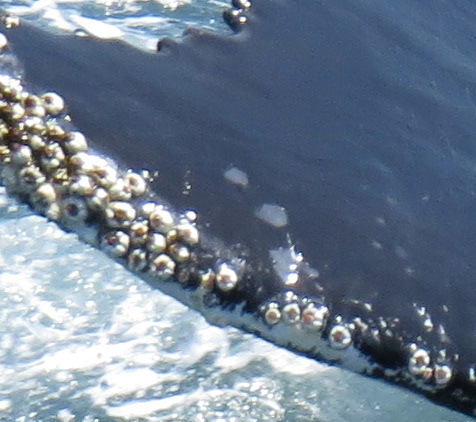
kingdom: Animalia
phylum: Arthropoda
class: Maxillopoda
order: Sessilia
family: Coronulidae
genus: Coronula
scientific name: Coronula diadema
